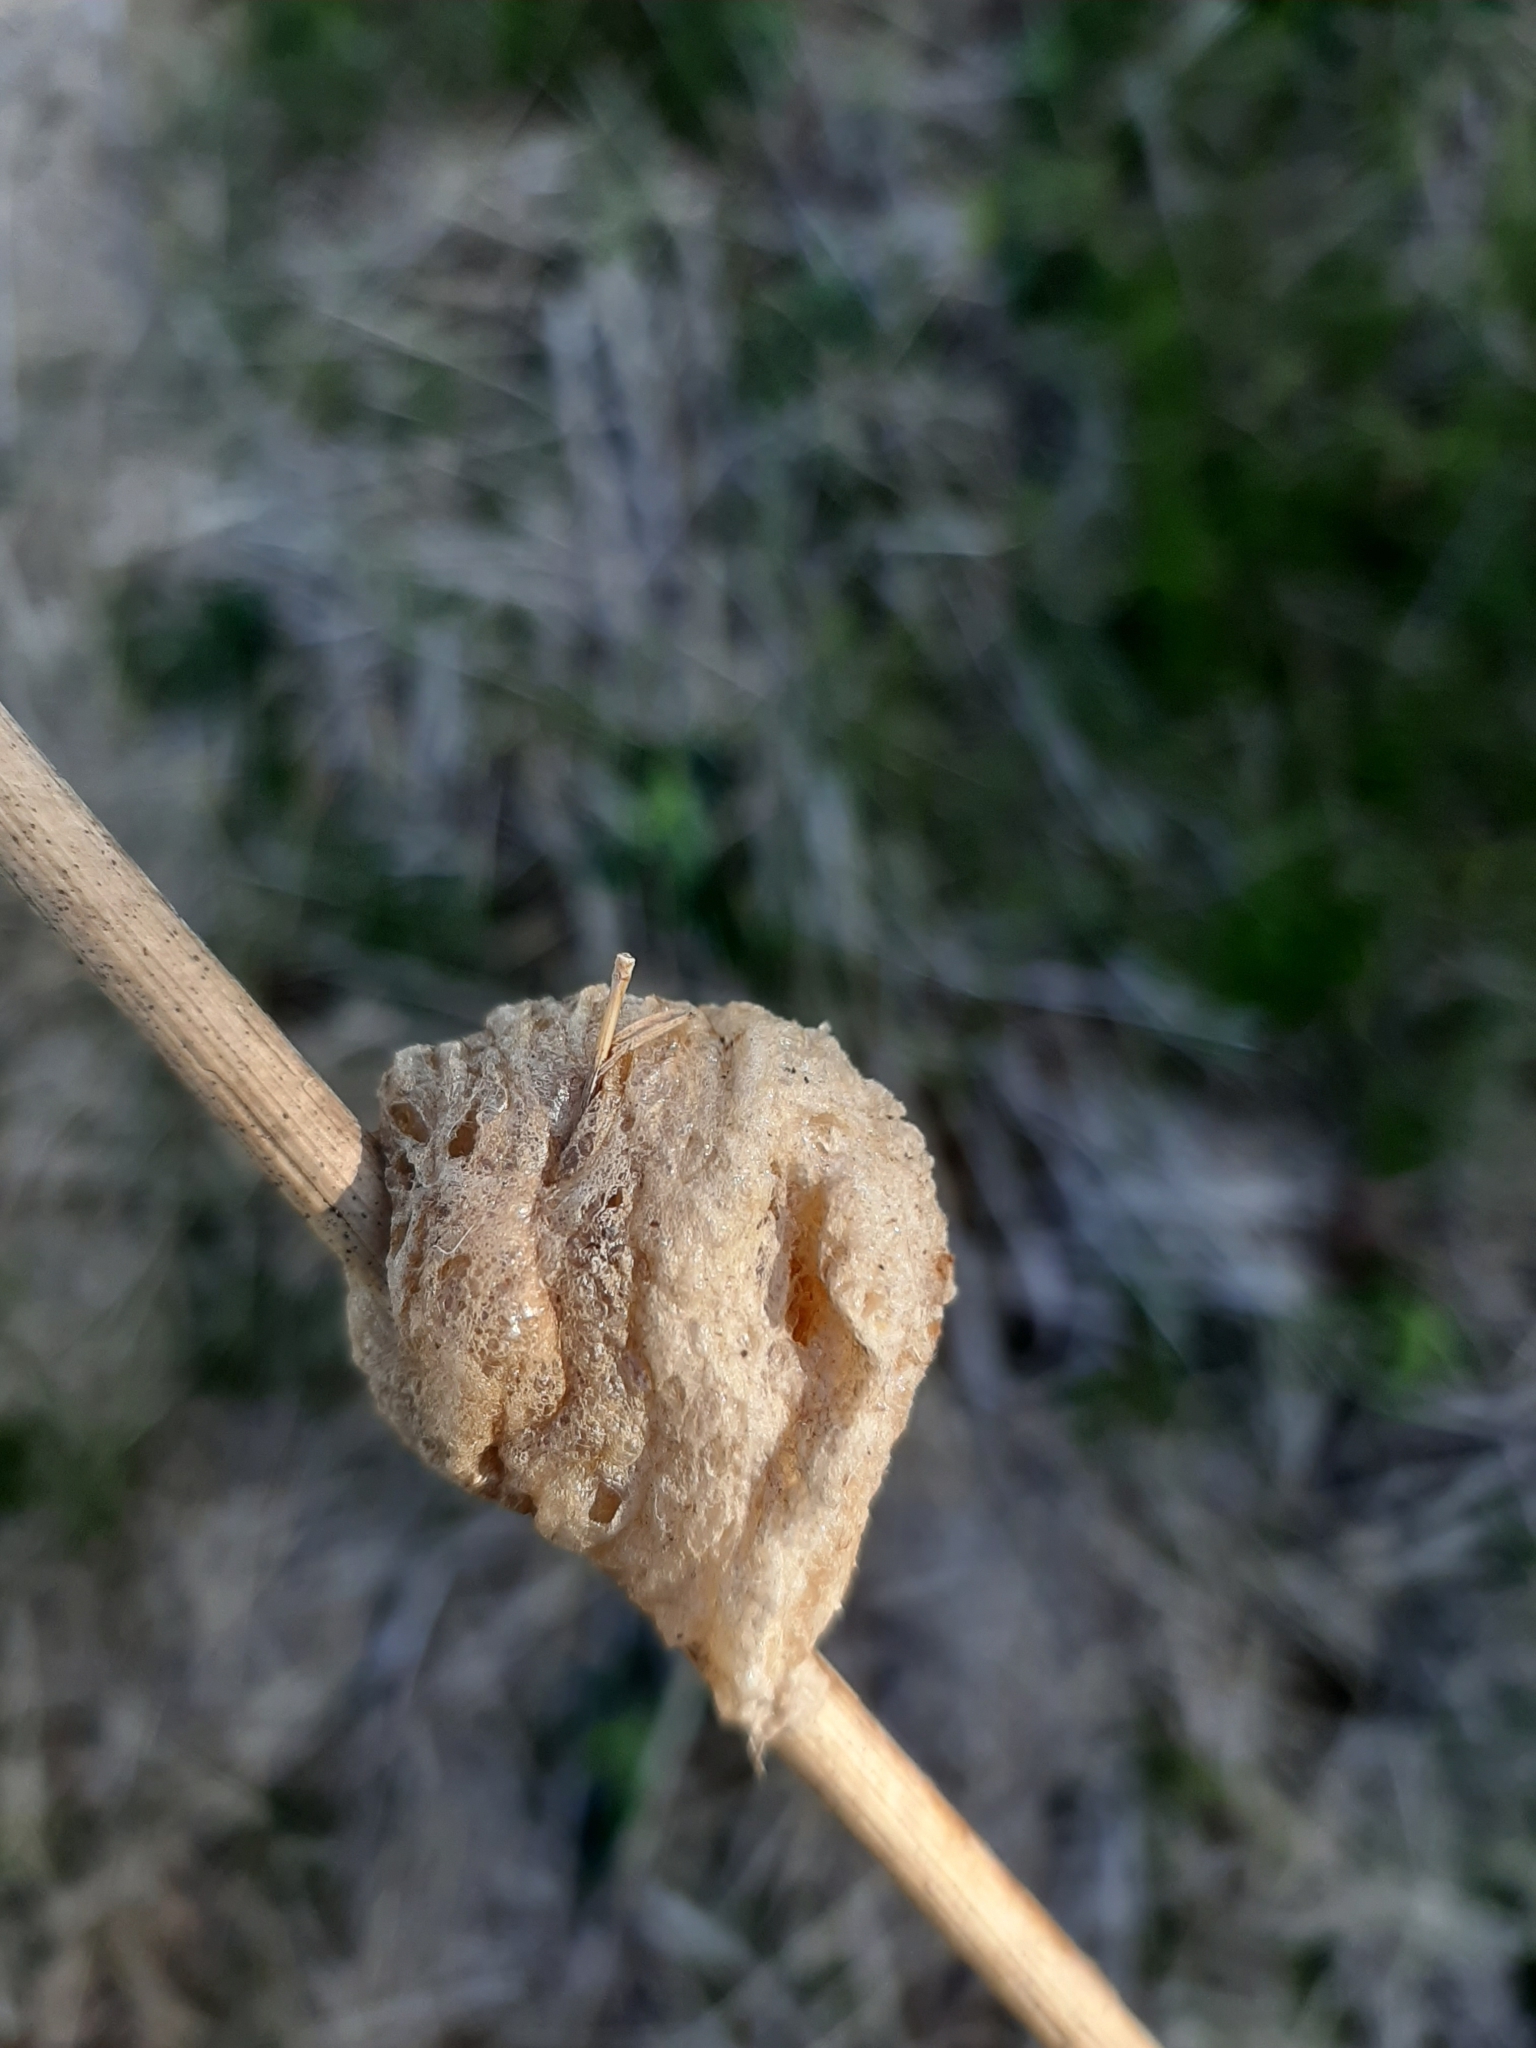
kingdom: Animalia
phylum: Arthropoda
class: Insecta
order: Mantodea
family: Mantidae
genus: Tenodera
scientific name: Tenodera sinensis
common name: Chinese mantis
